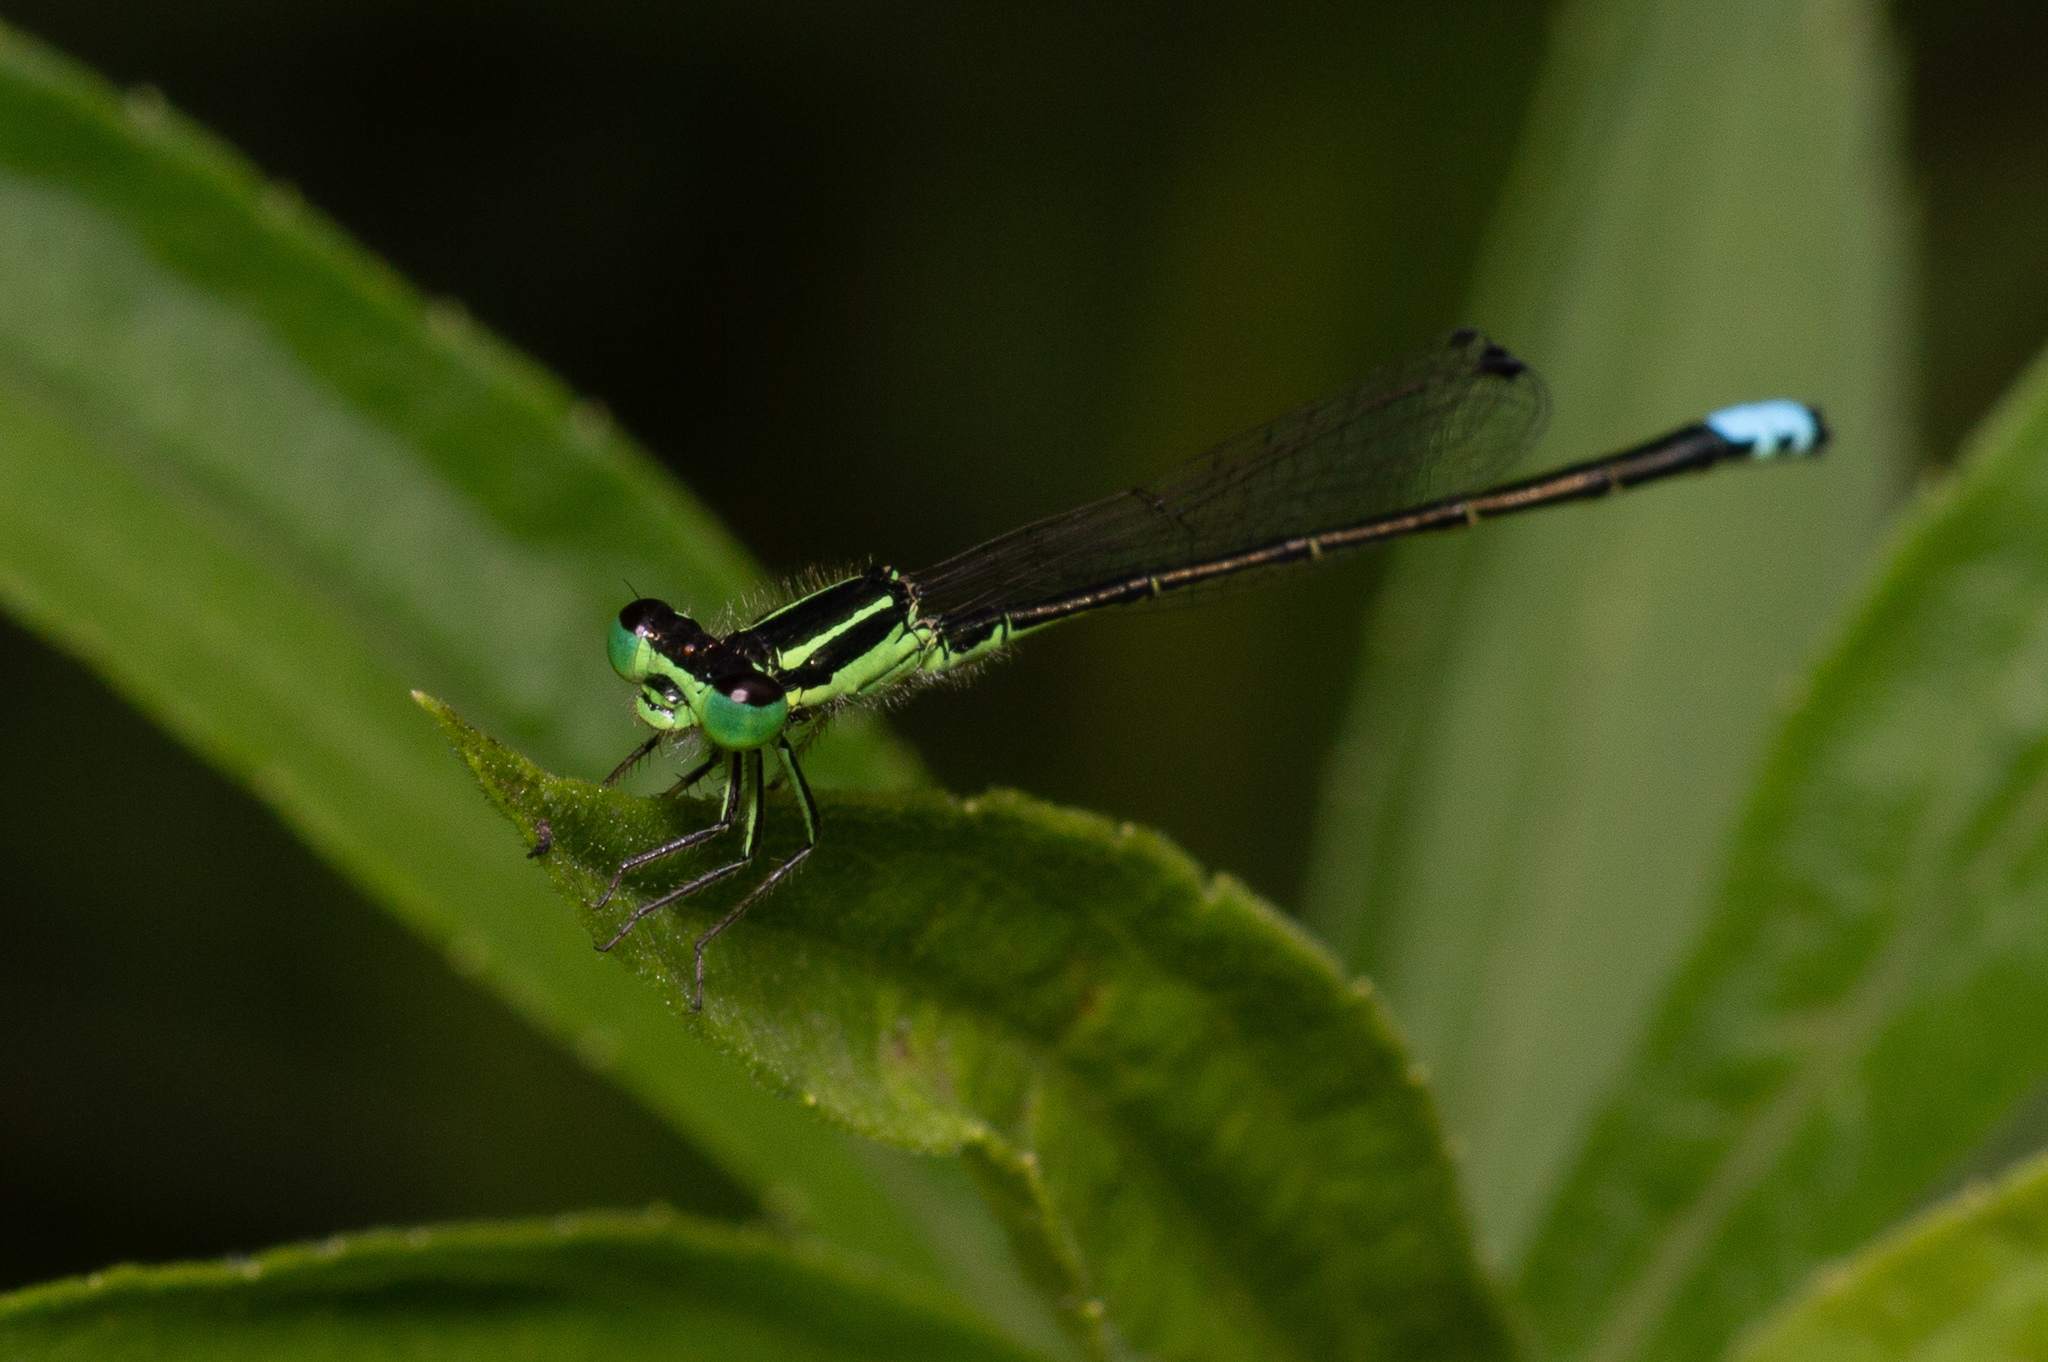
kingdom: Animalia
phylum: Arthropoda
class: Insecta
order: Odonata
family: Coenagrionidae
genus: Ischnura
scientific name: Ischnura verticalis
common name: Eastern forktail
